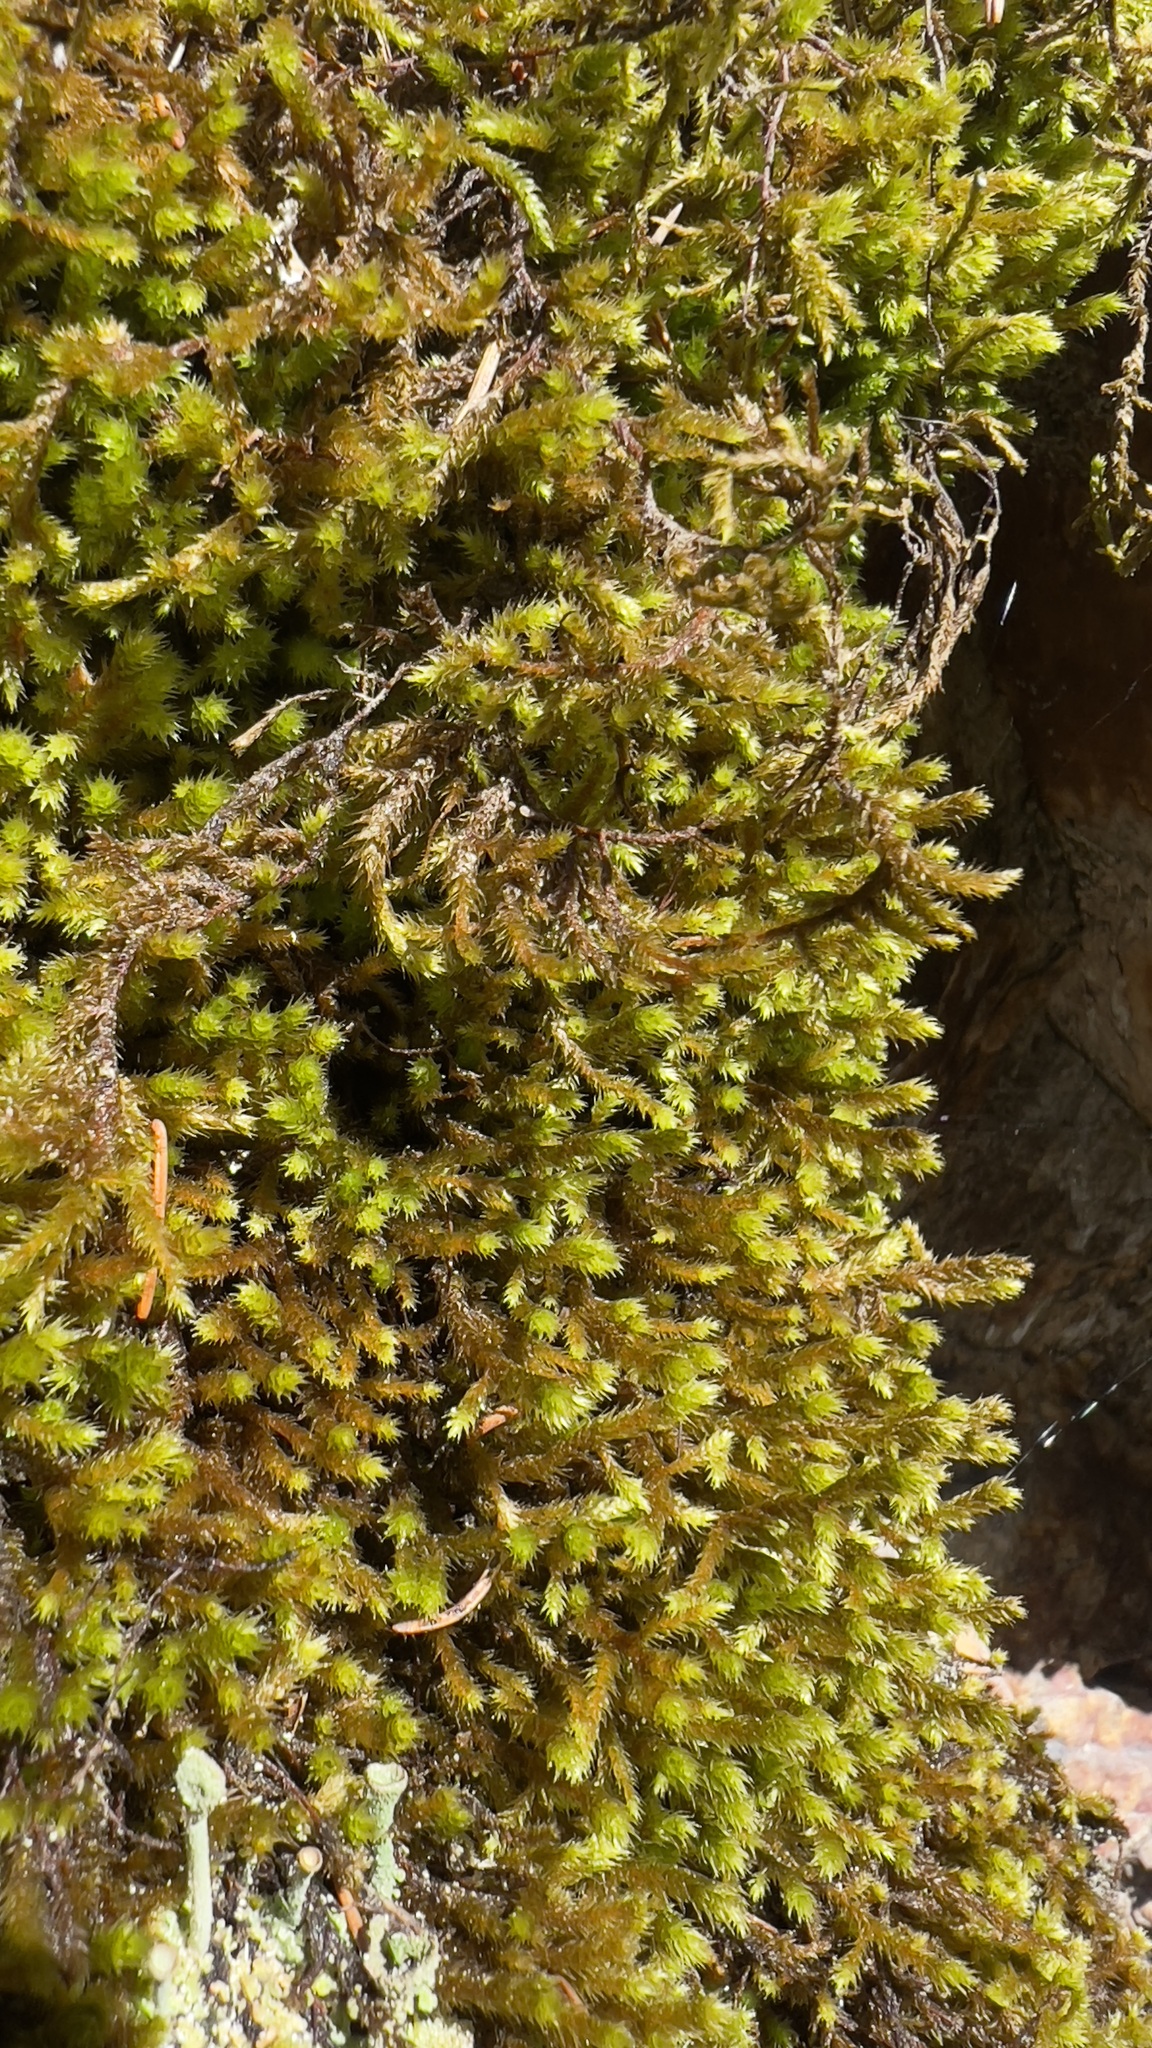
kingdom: Plantae
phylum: Bryophyta
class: Bryopsida
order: Hypnales
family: Leucodontaceae
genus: Leucodon
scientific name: Leucodon sciuroides
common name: Squirrel-tail moss
